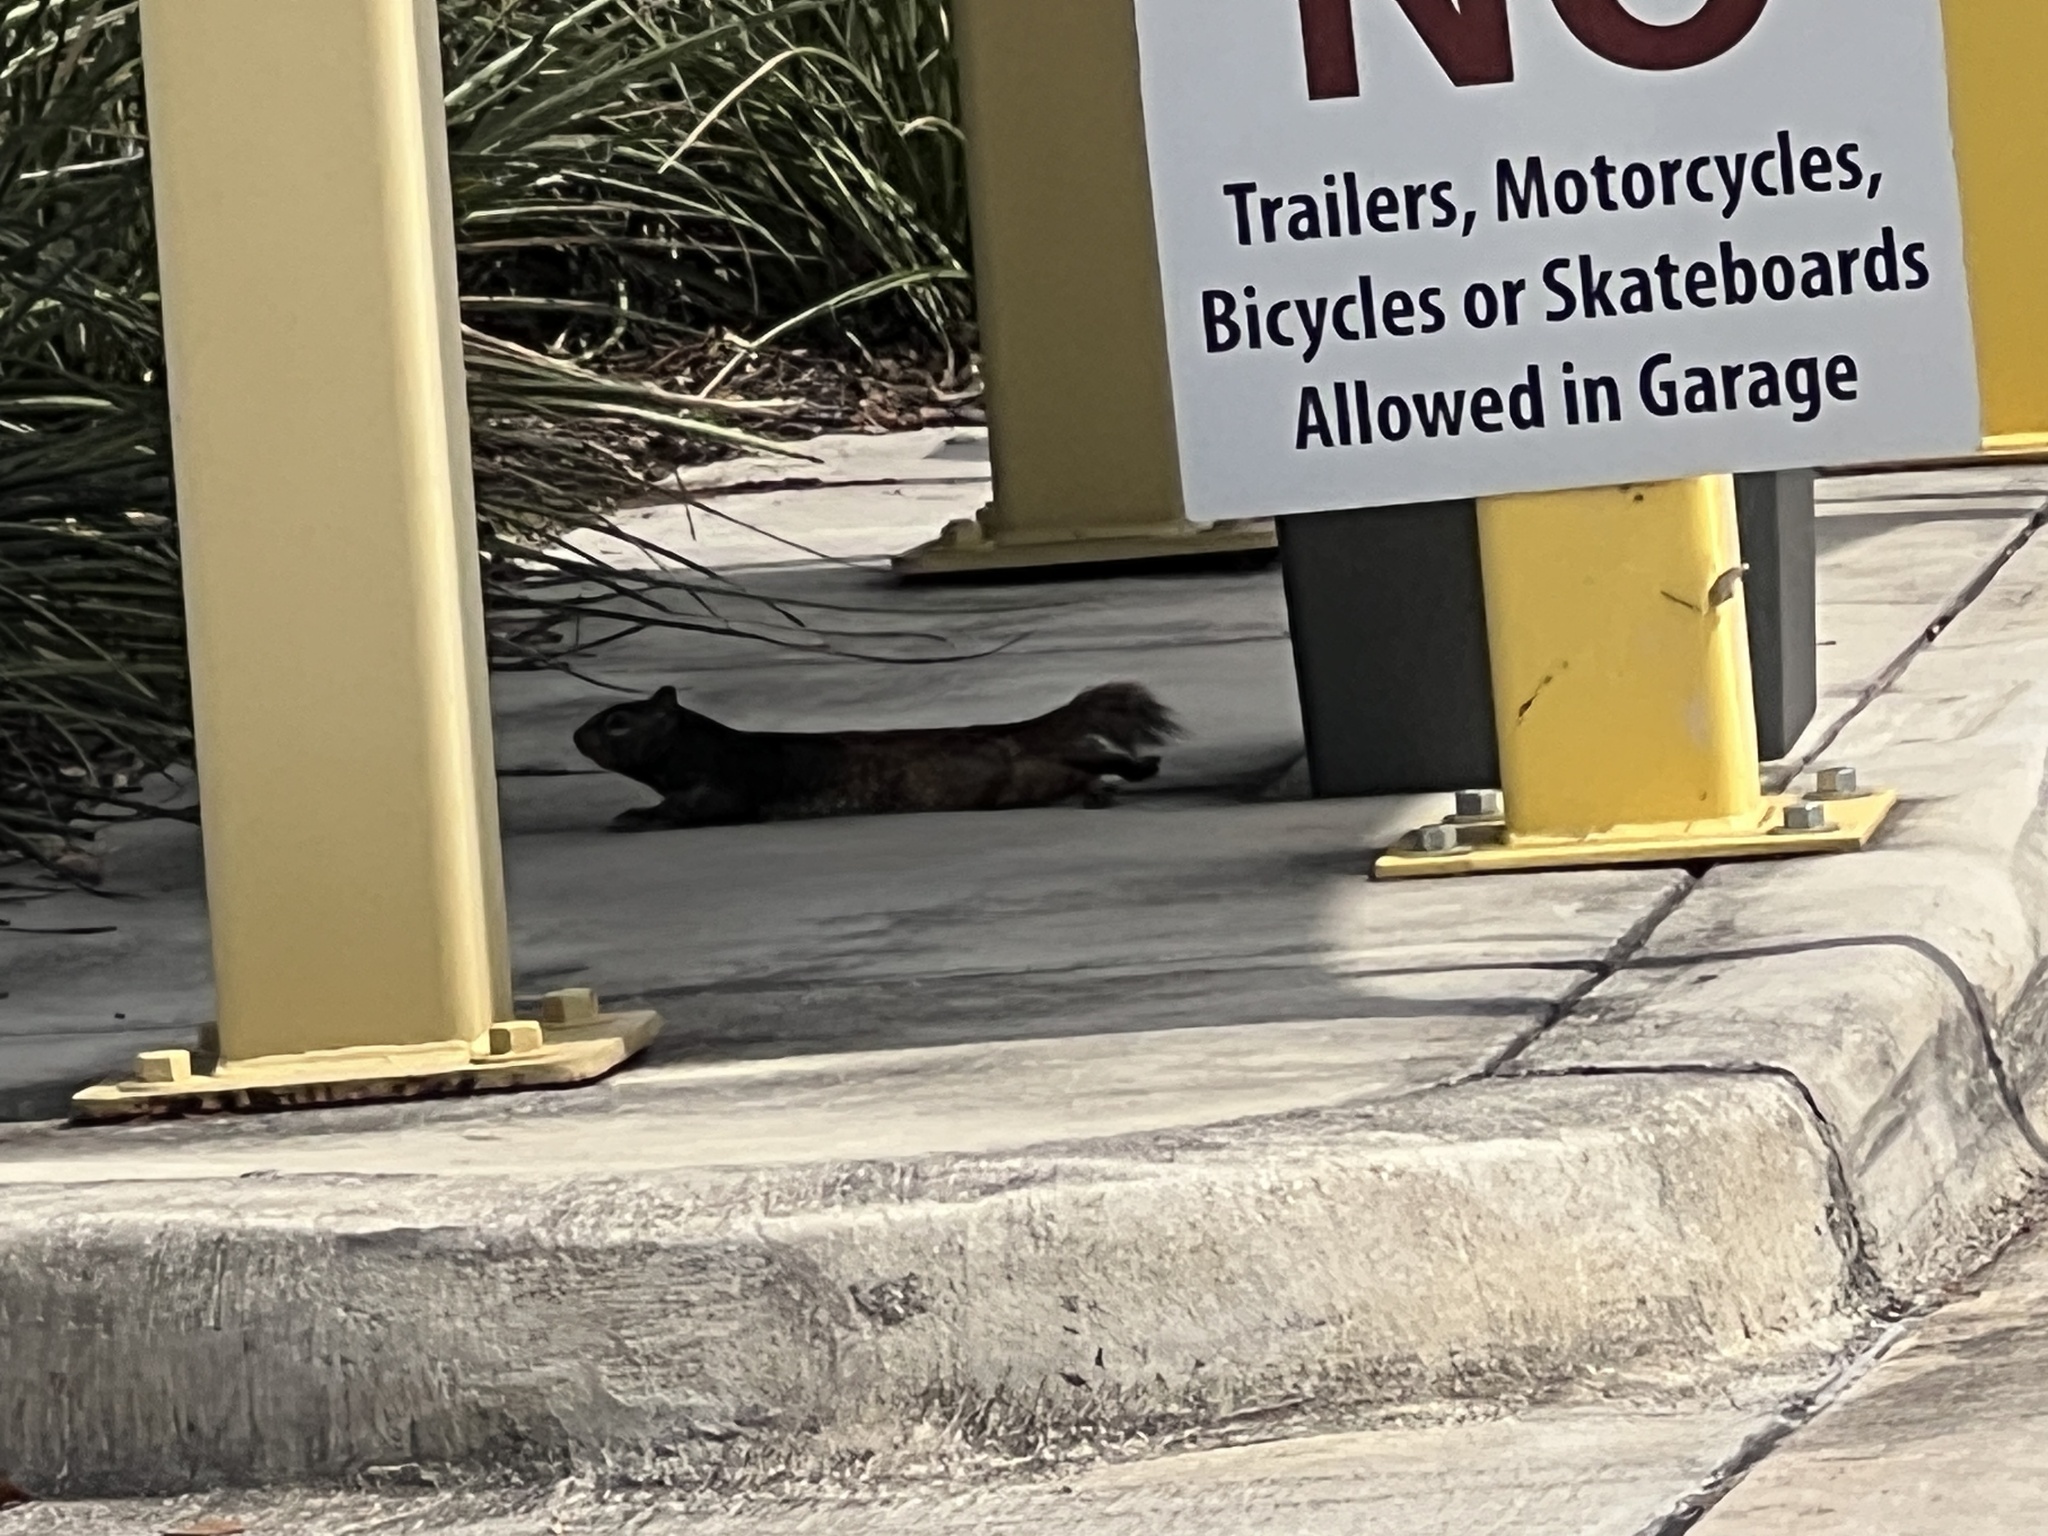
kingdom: Animalia
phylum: Chordata
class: Mammalia
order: Rodentia
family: Sciuridae
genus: Otospermophilus
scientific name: Otospermophilus variegatus
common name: Rock squirrel
